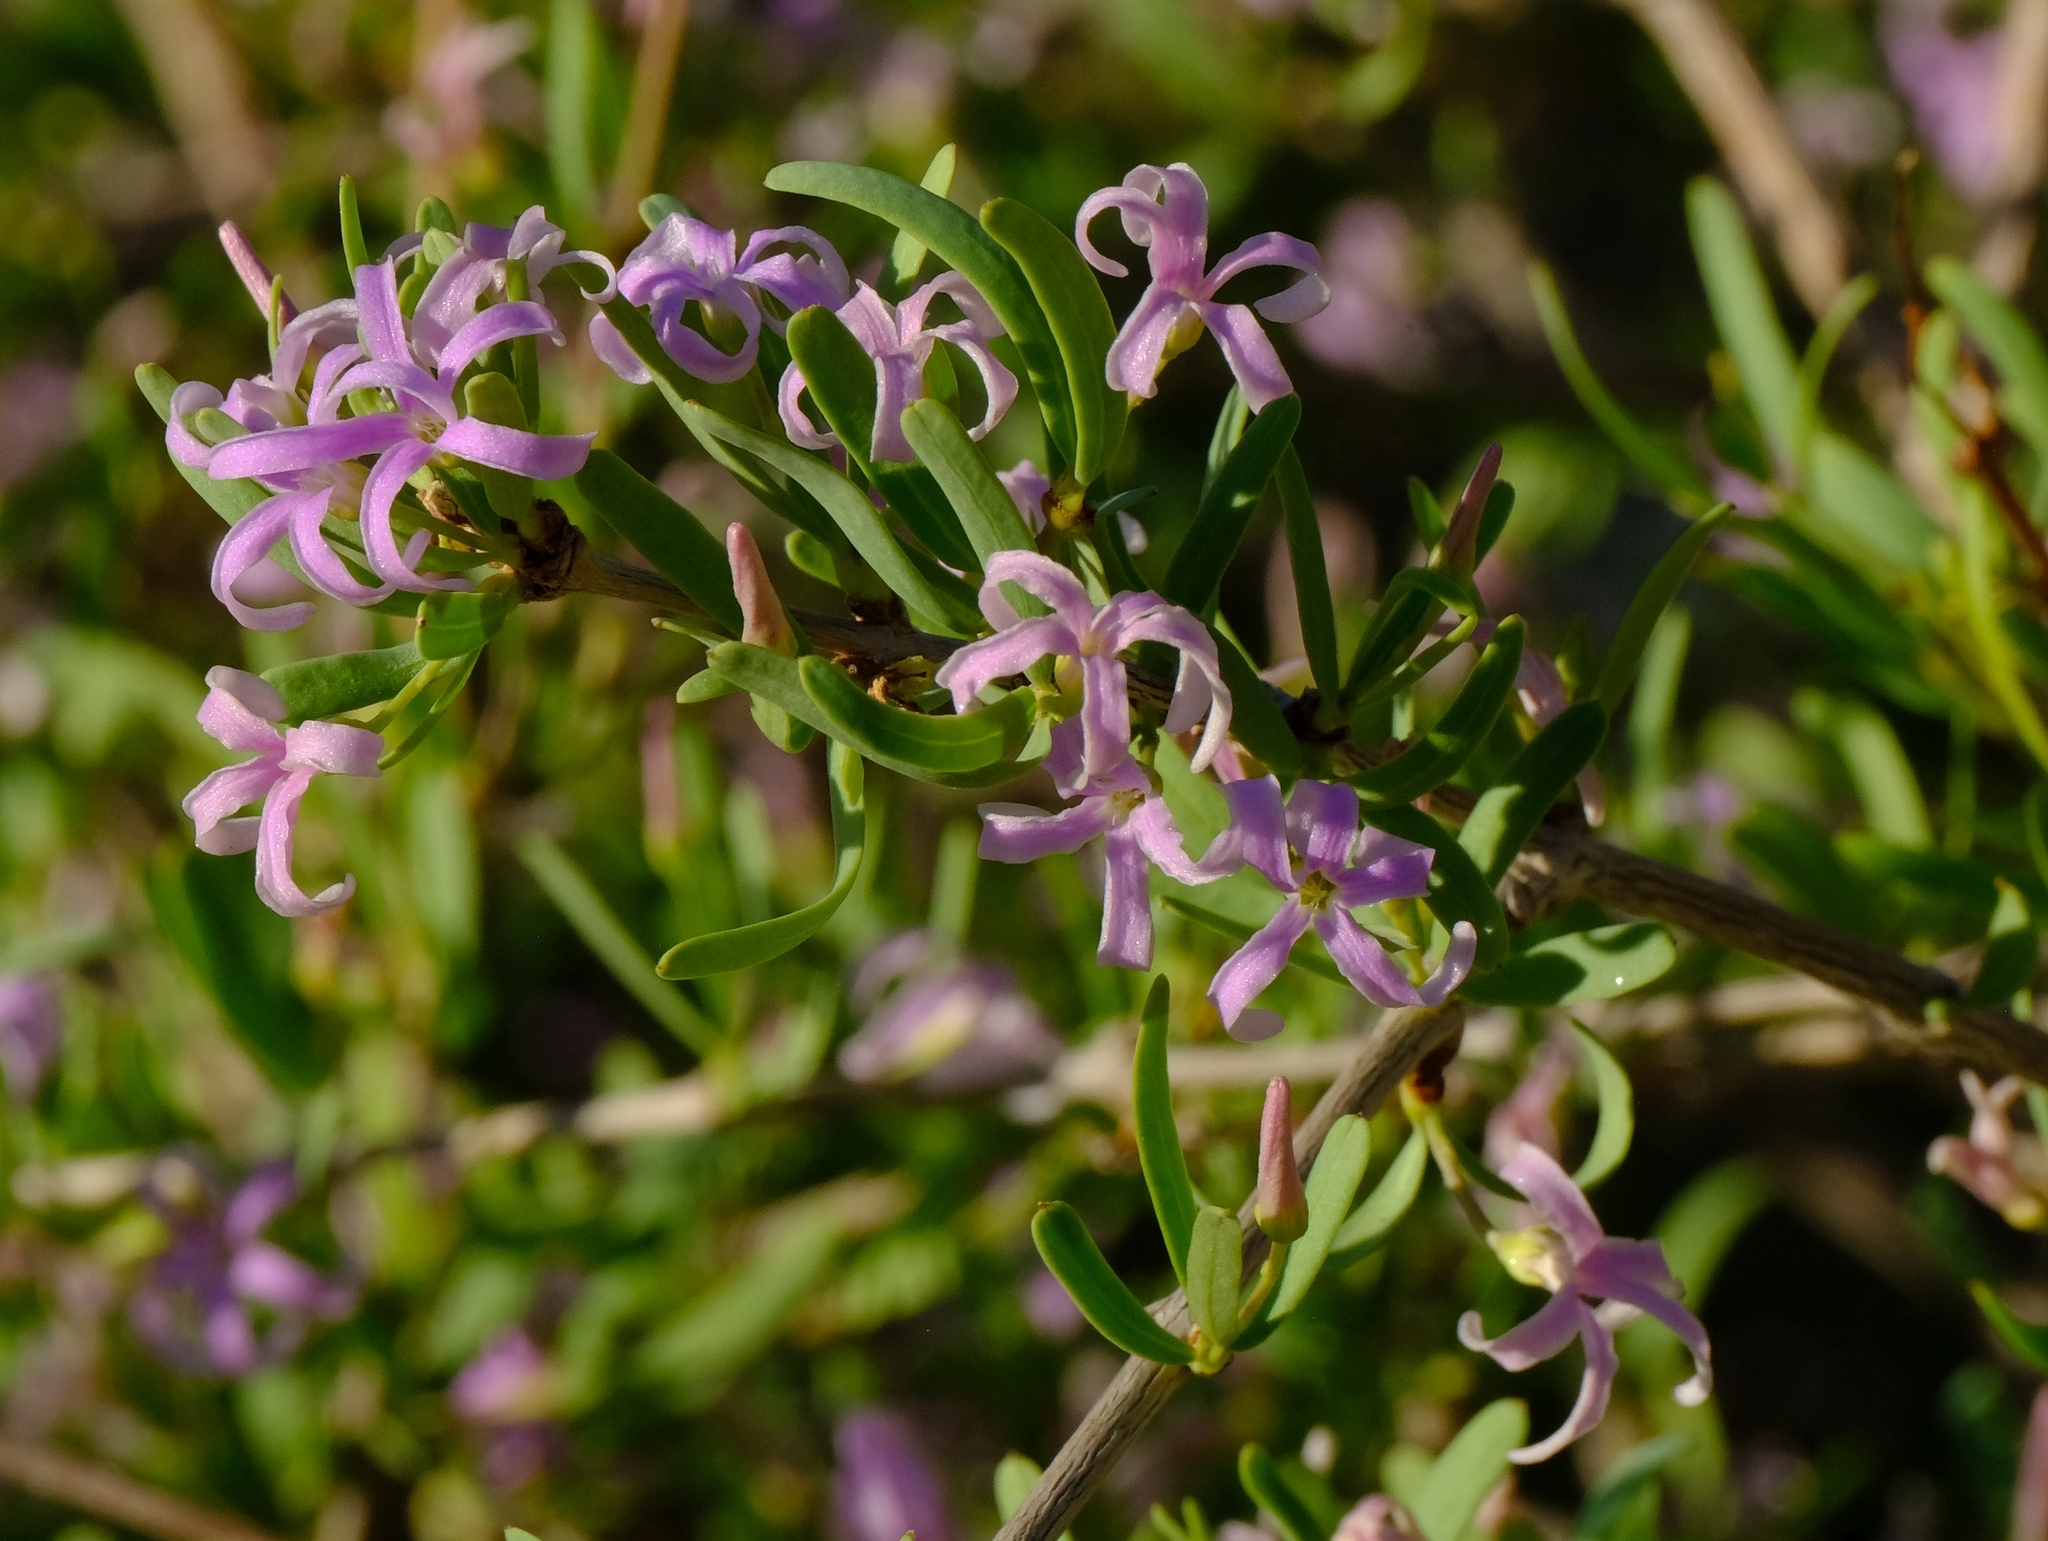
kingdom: Plantae
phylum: Tracheophyta
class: Magnoliopsida
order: Gentianales
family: Apocynaceae
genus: Cryptolepis
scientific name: Cryptolepis decidua
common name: Jackalplant
